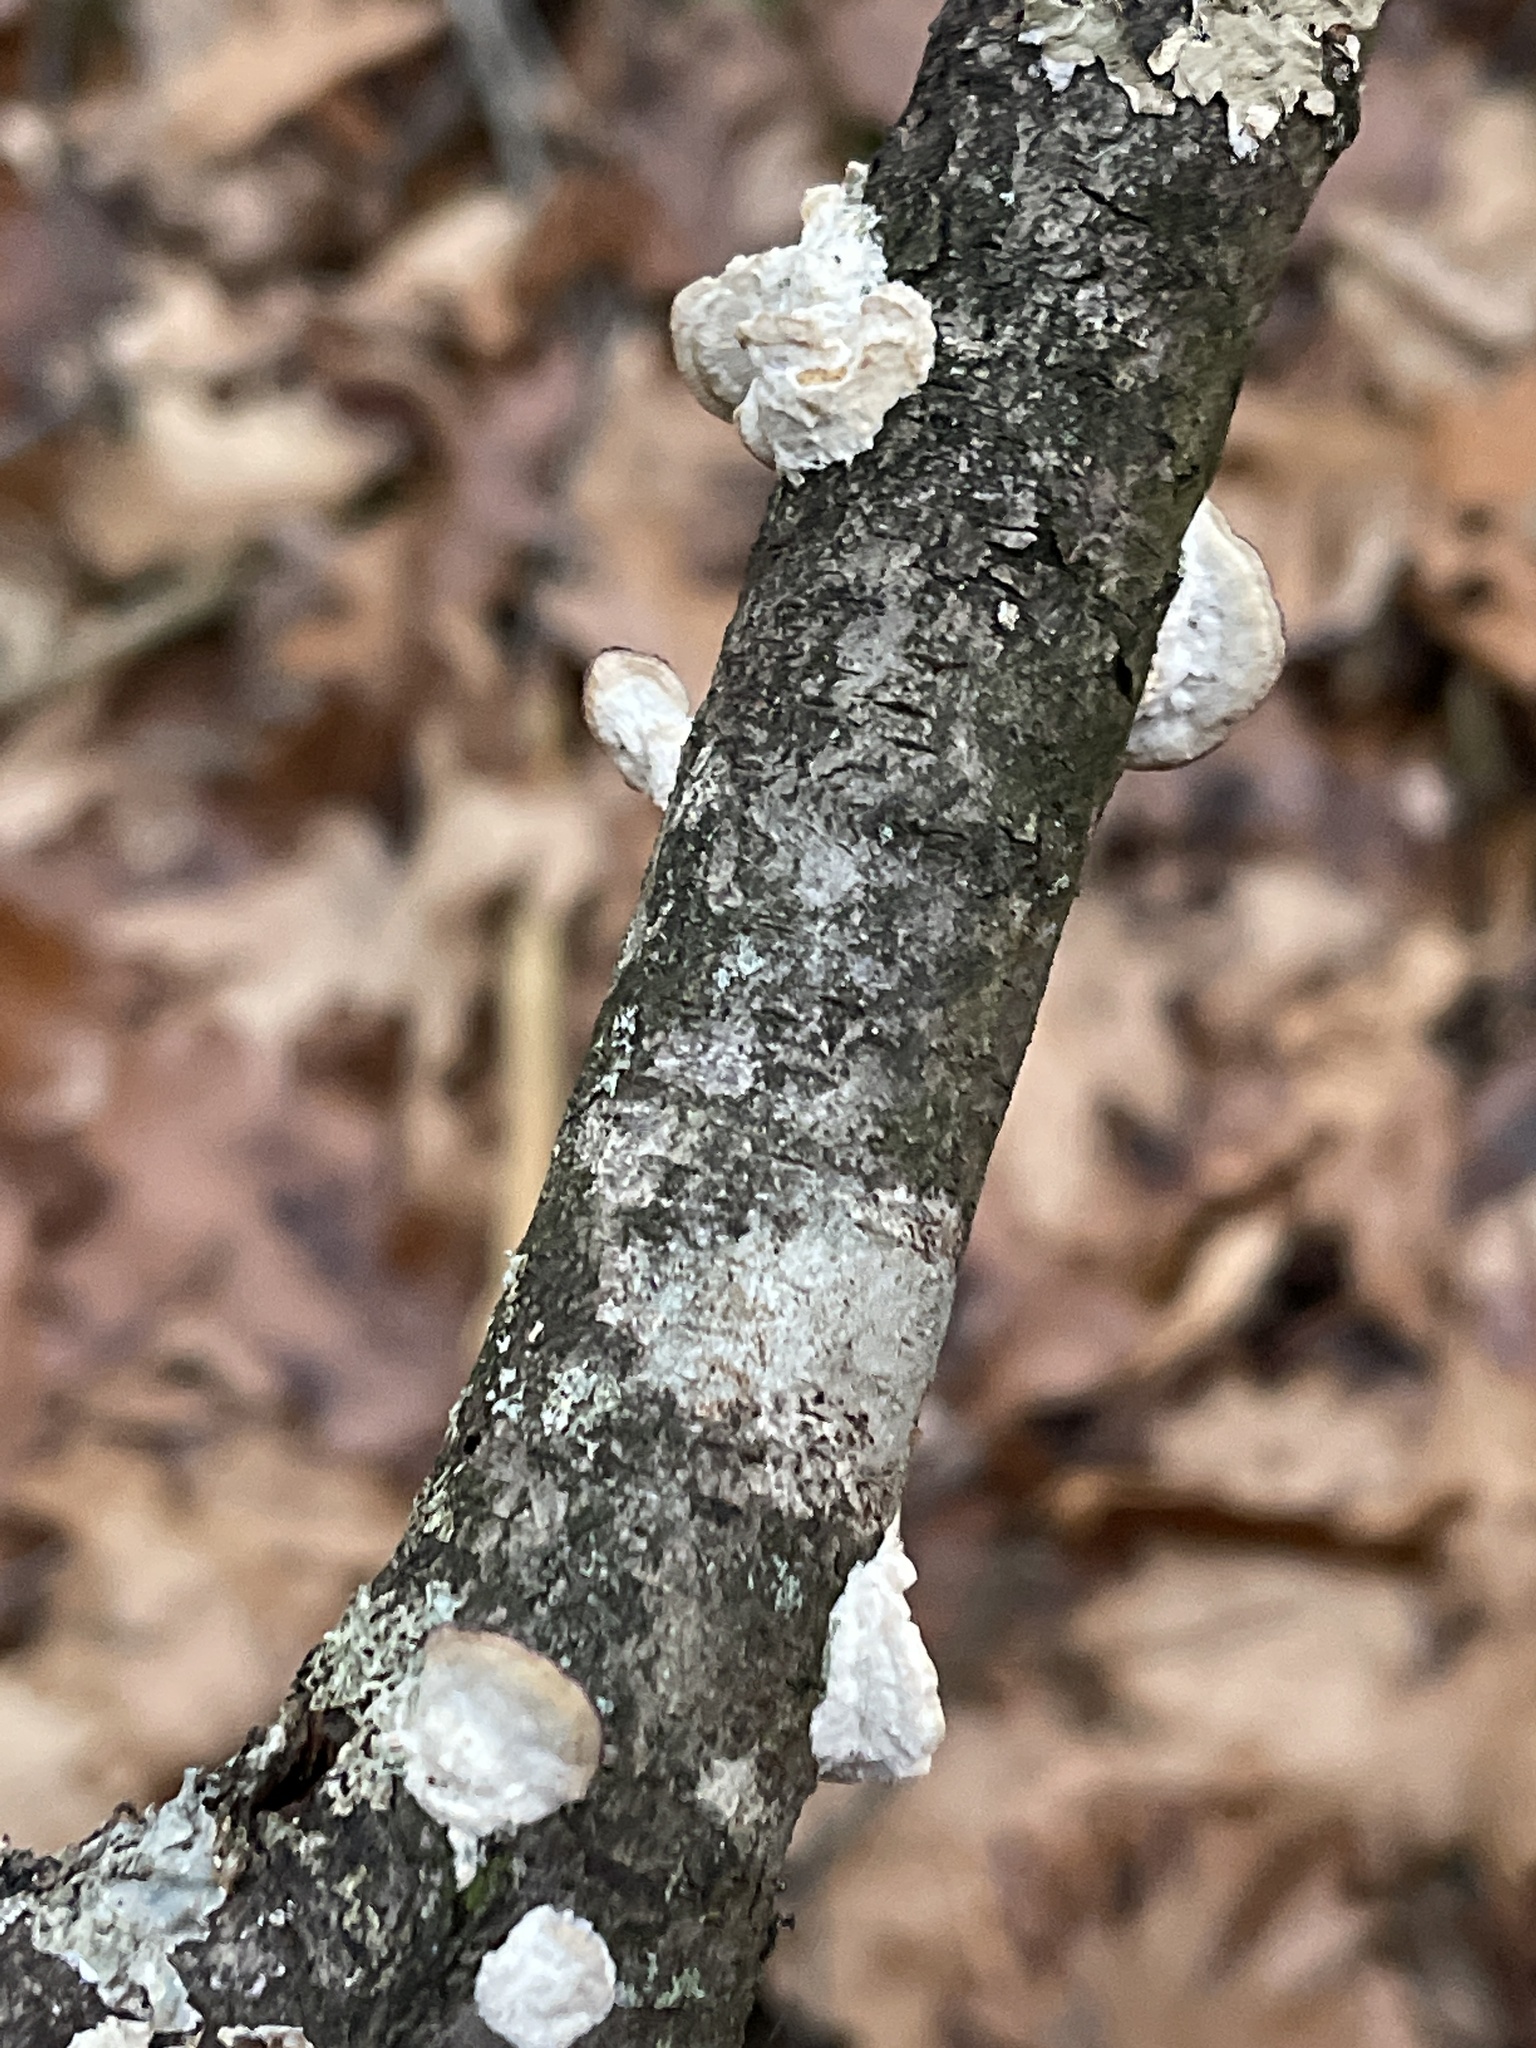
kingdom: Fungi
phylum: Basidiomycota
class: Agaricomycetes
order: Hymenochaetales
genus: Trichaptum
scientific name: Trichaptum biforme
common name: Violet-toothed polypore
